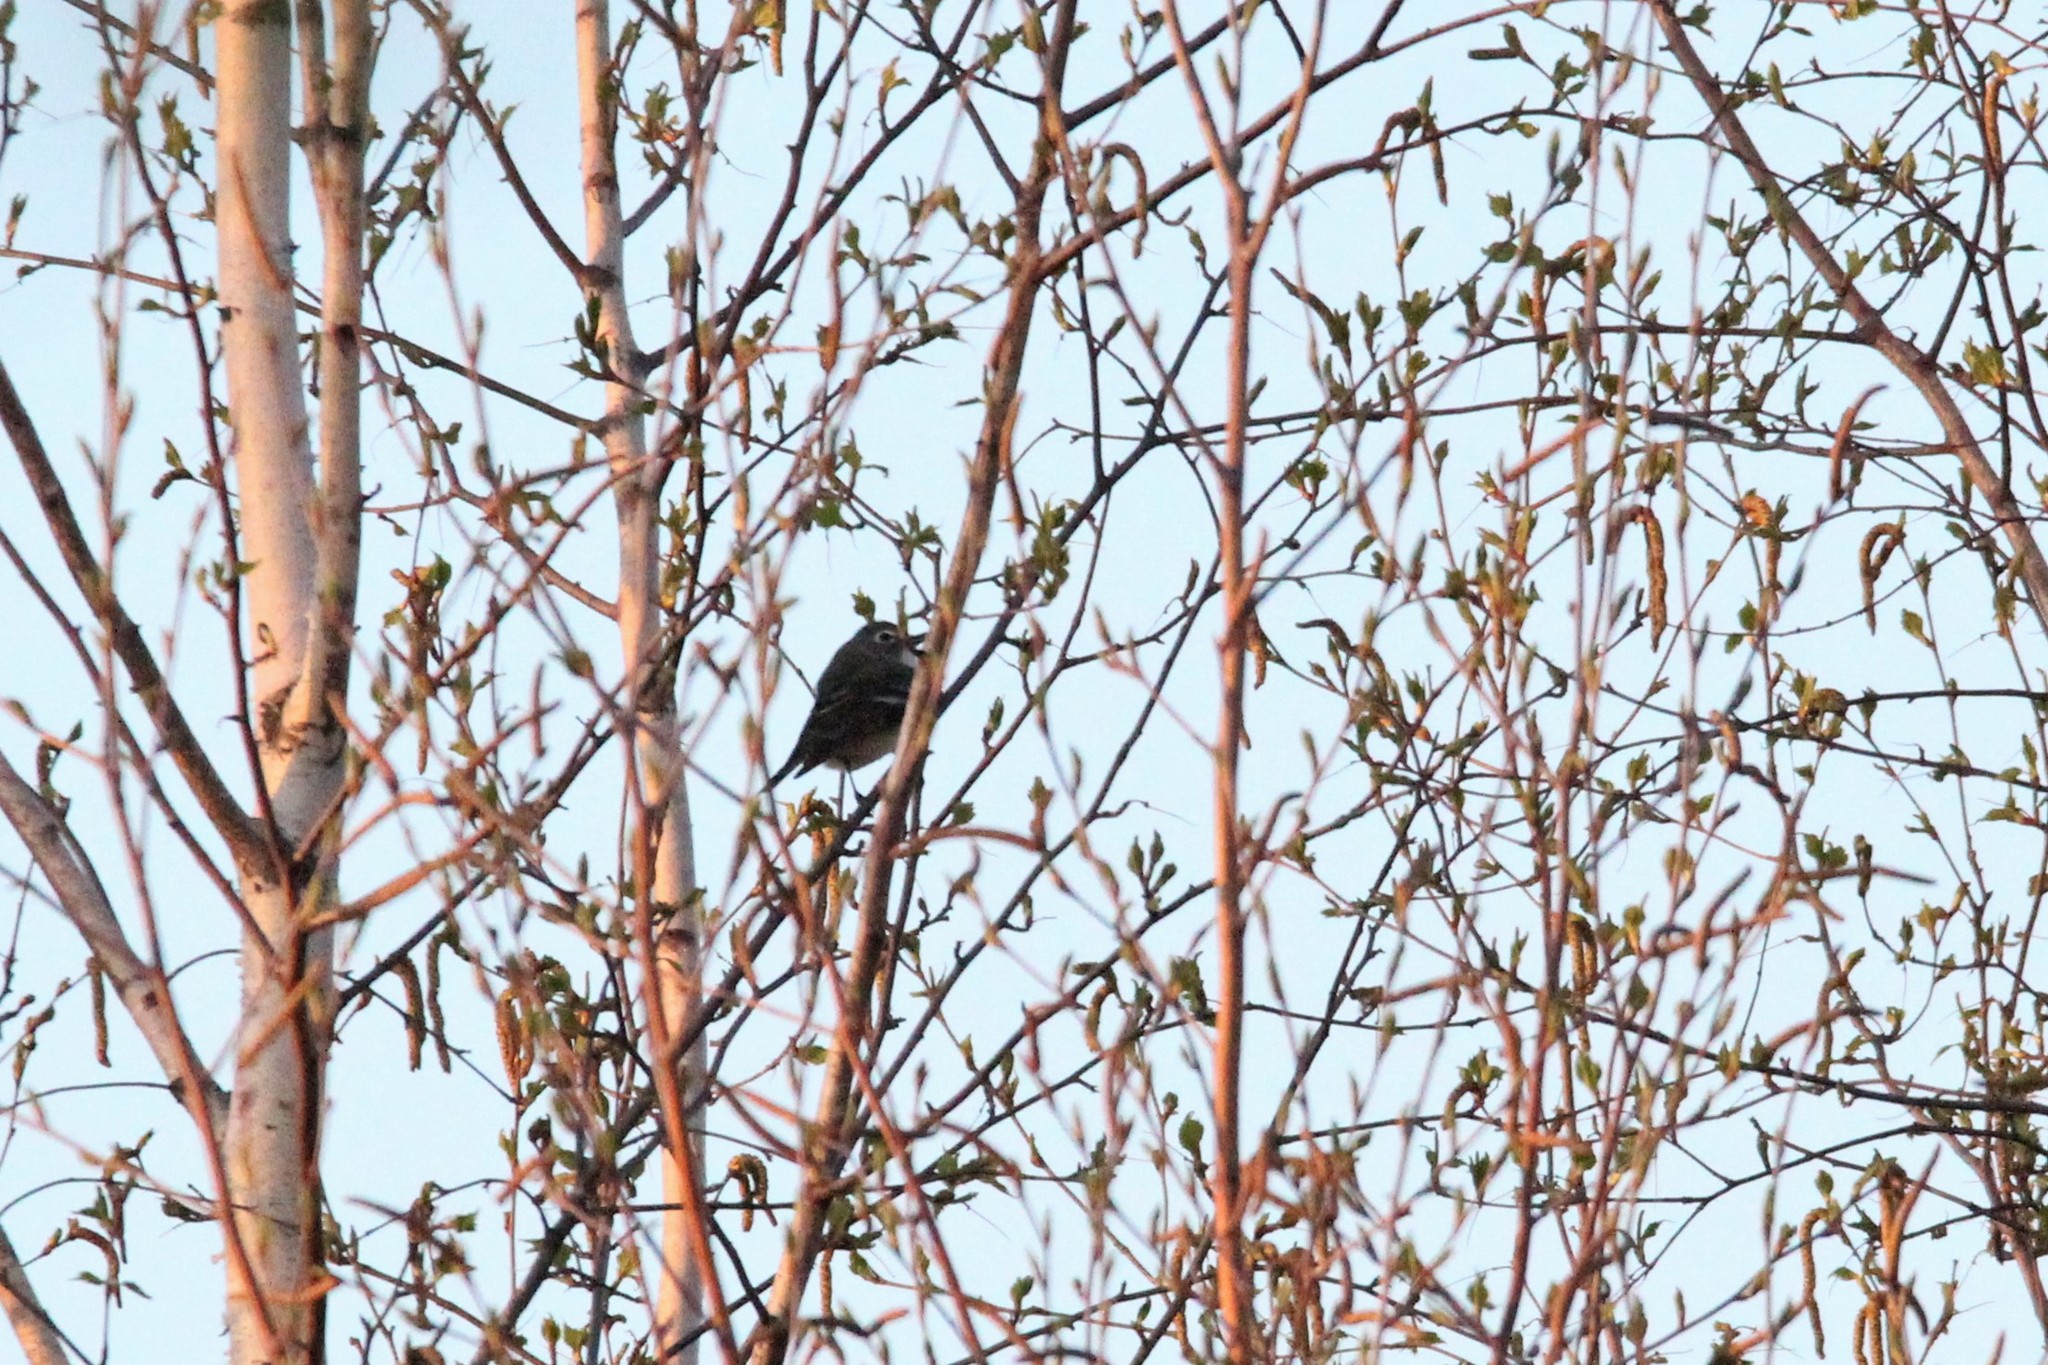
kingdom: Animalia
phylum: Chordata
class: Aves
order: Passeriformes
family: Vireonidae
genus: Vireo
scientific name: Vireo solitarius
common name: Blue-headed vireo
